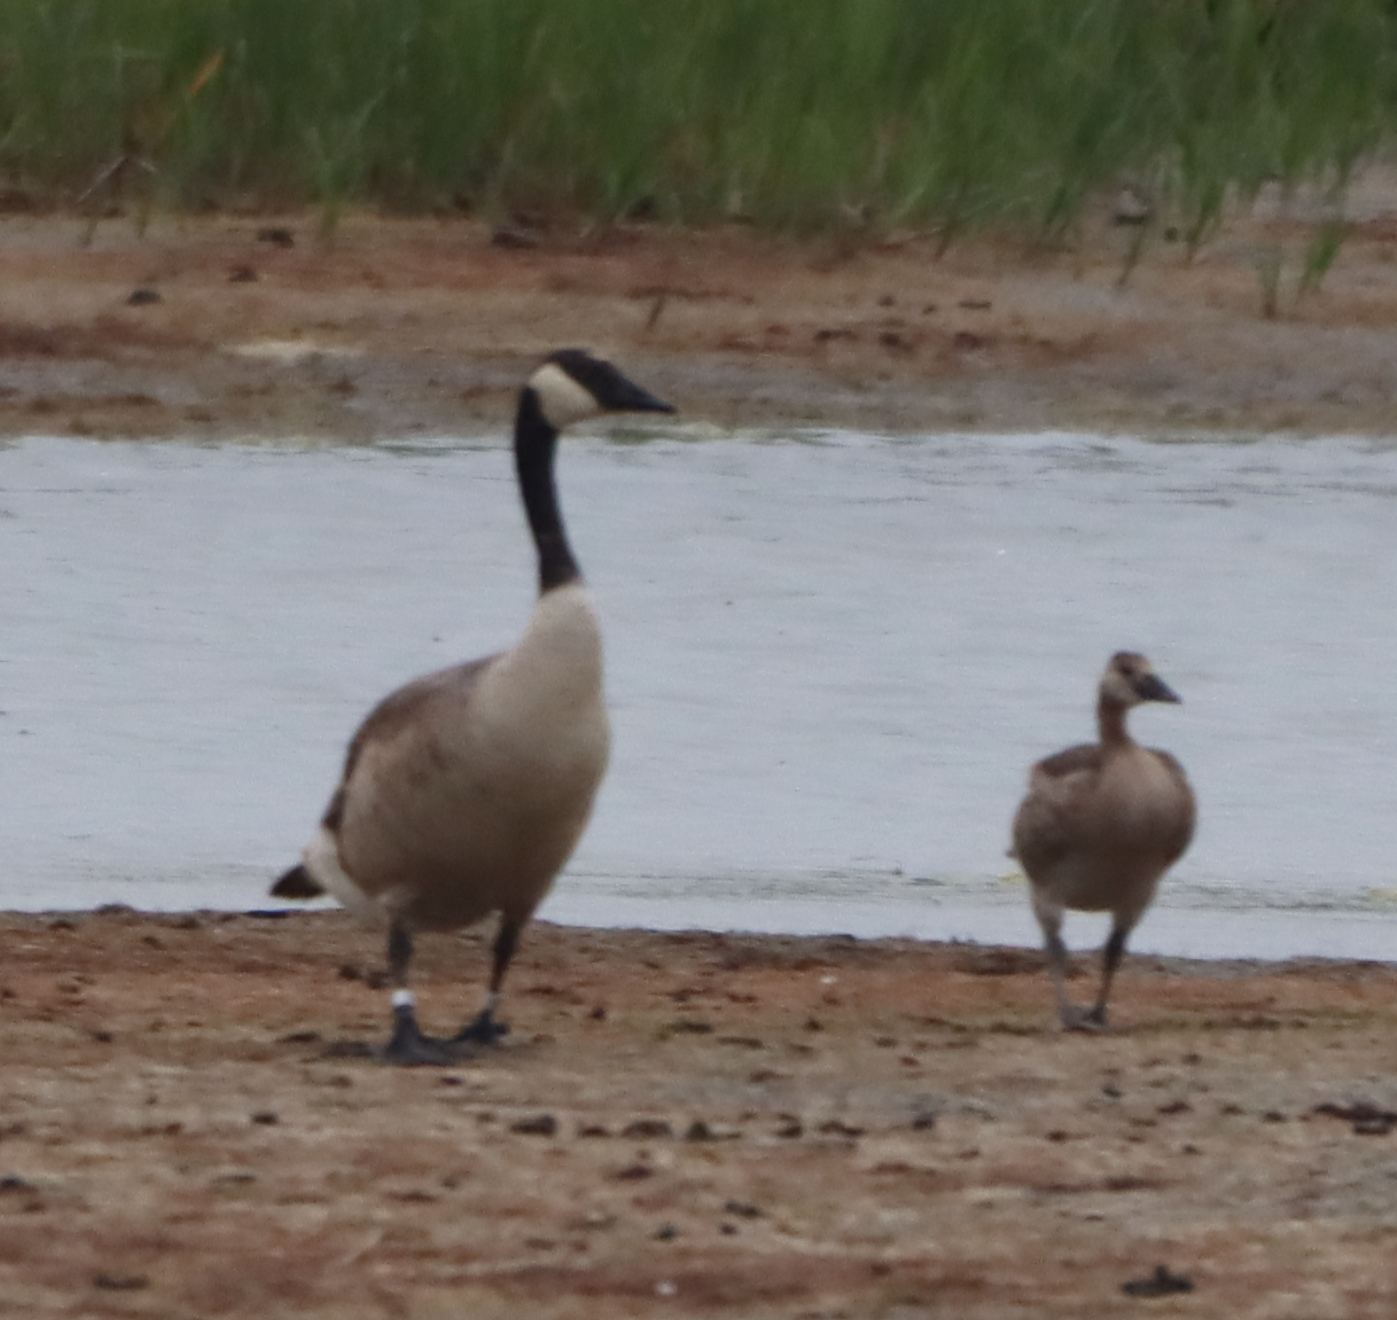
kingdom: Animalia
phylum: Chordata
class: Aves
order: Anseriformes
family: Anatidae
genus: Branta
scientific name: Branta canadensis
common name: Canada goose
